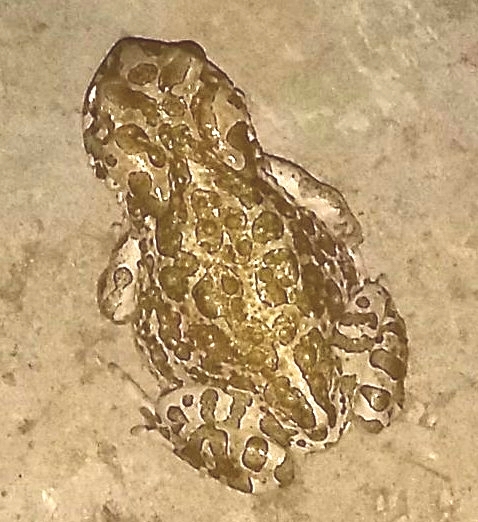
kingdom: Animalia
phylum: Chordata
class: Amphibia
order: Anura
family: Bufonidae
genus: Bufotes
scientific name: Bufotes viridis
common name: European green toad
